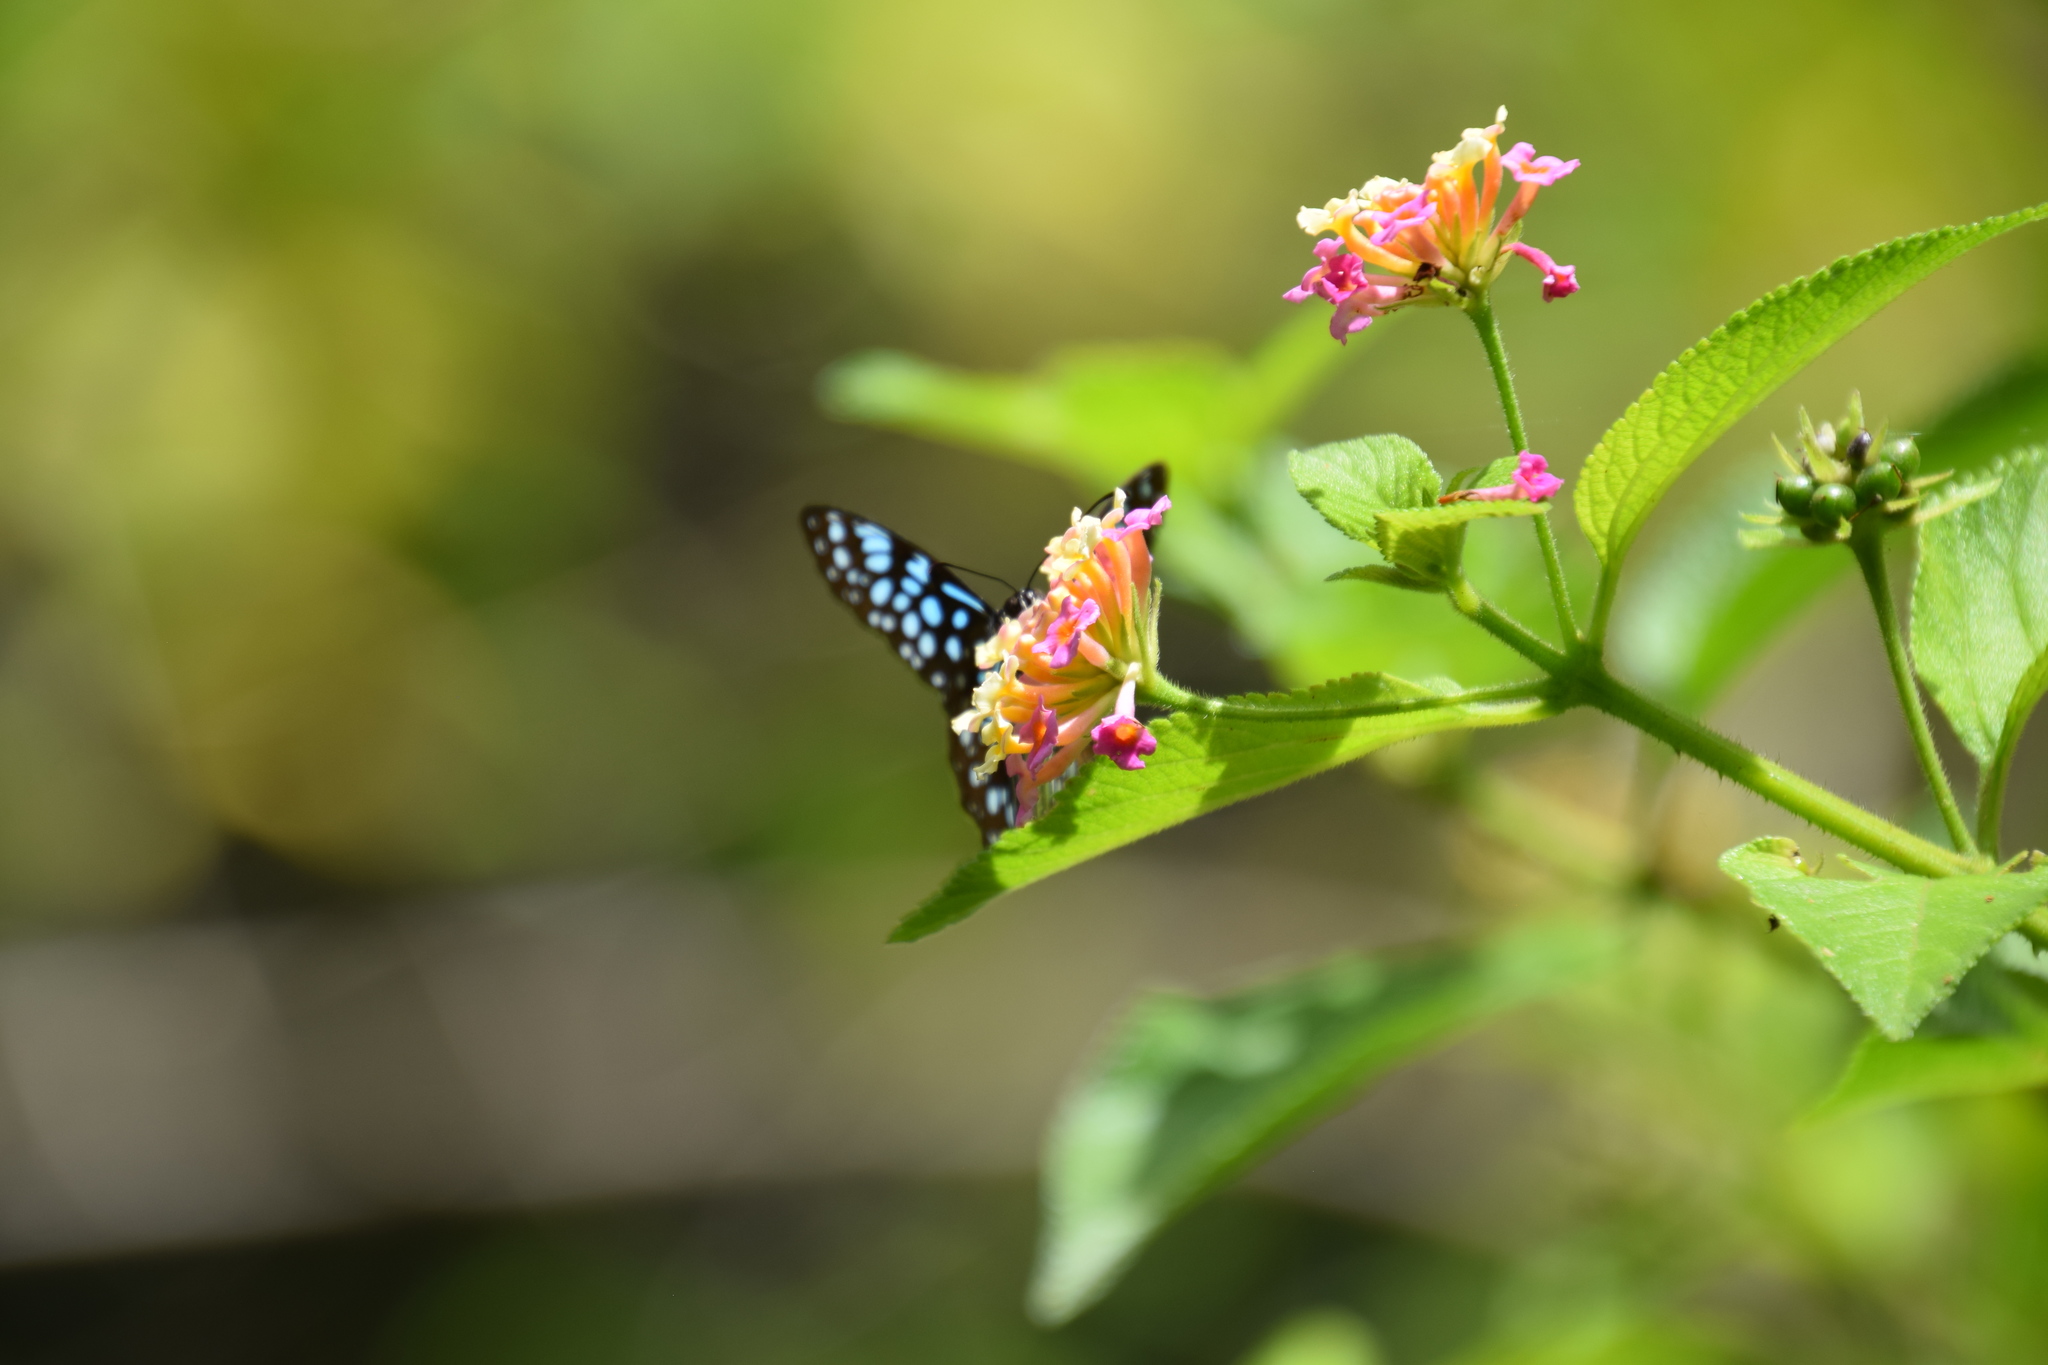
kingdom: Animalia
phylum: Arthropoda
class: Insecta
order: Lepidoptera
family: Nymphalidae
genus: Tirumala
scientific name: Tirumala hamata
